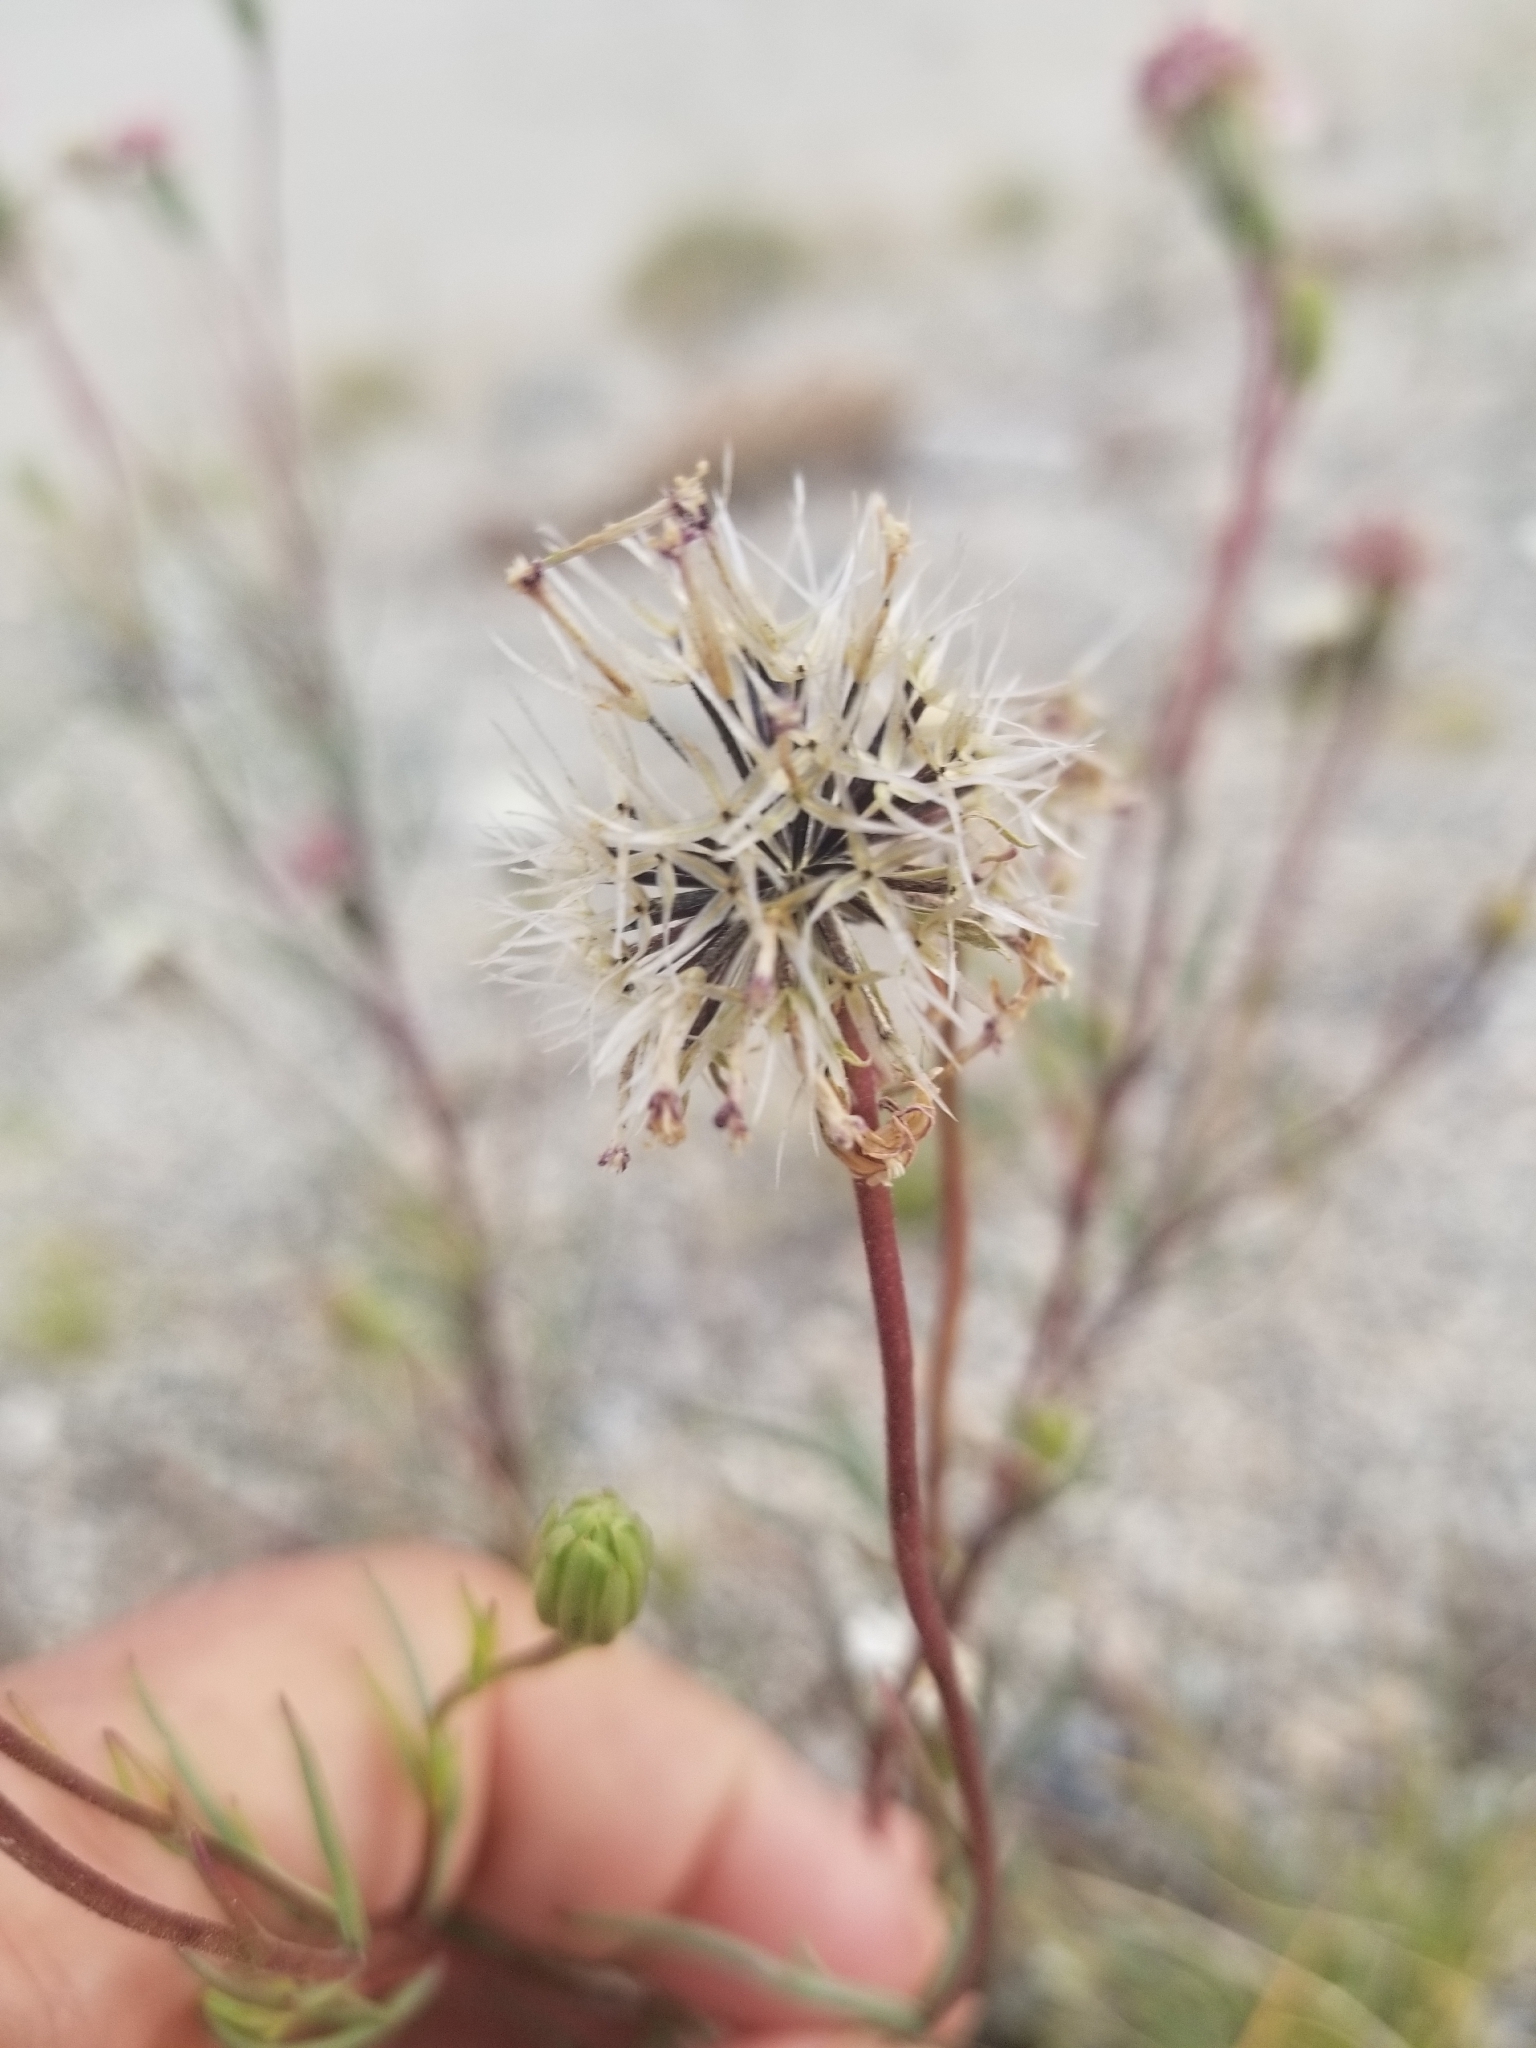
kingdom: Plantae
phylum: Tracheophyta
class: Magnoliopsida
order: Asterales
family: Asteraceae
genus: Chaenactis
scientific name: Chaenactis fremontii
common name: Fremont pincushion
